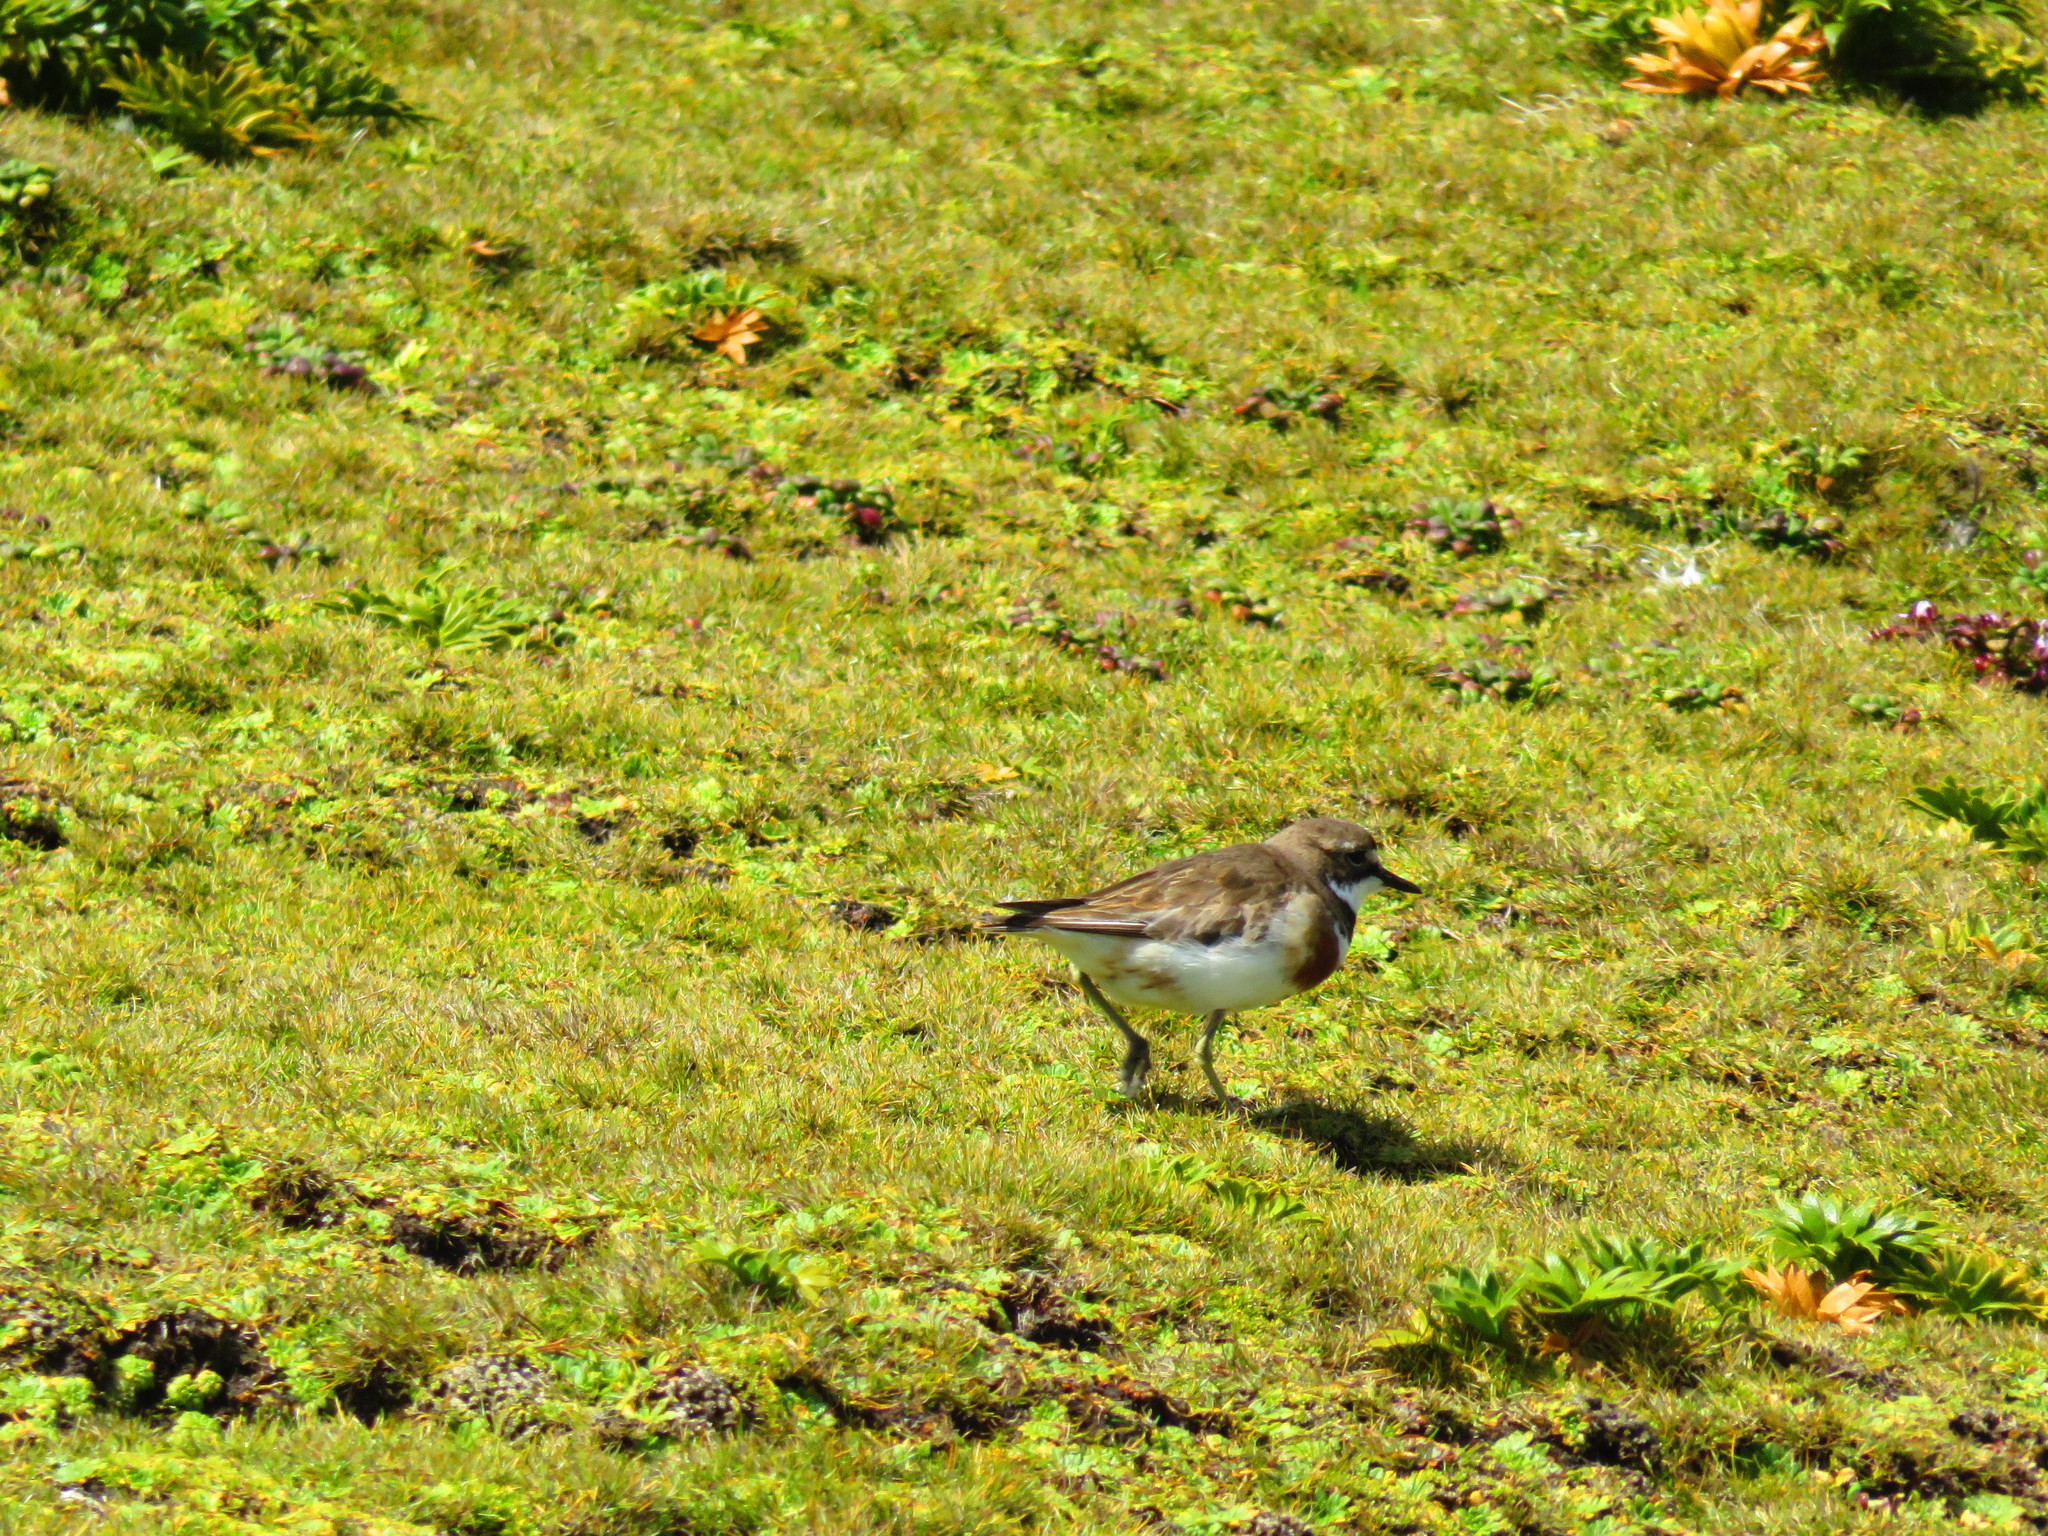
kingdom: Animalia
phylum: Chordata
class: Aves
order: Charadriiformes
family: Charadriidae
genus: Anarhynchus
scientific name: Anarhynchus
